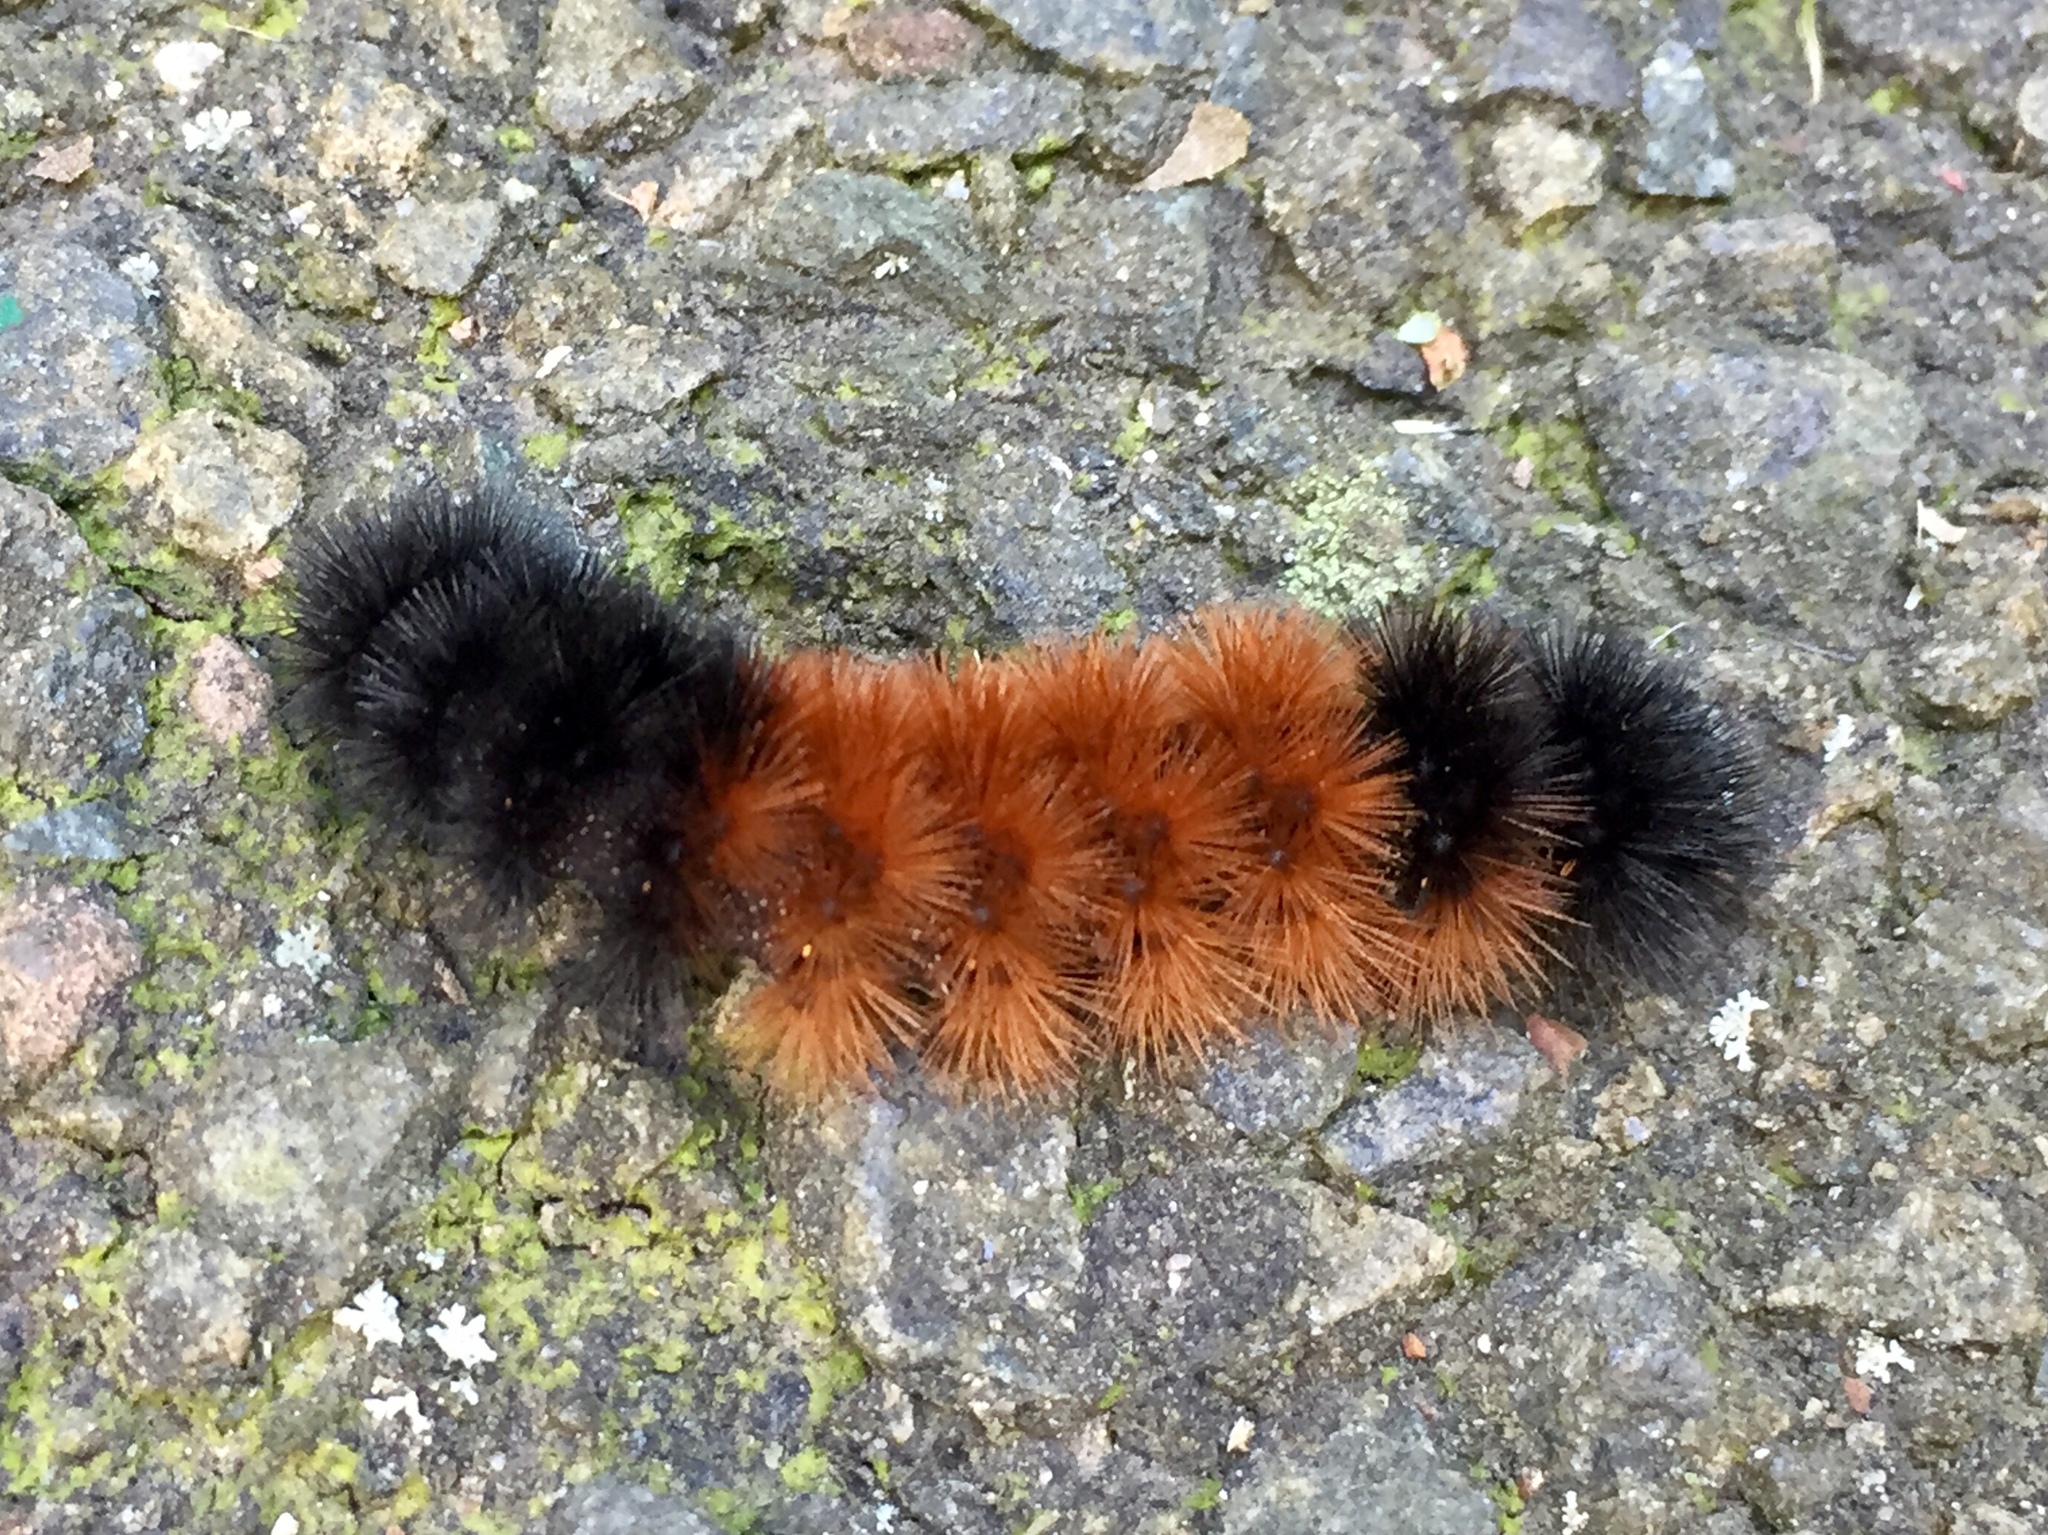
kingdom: Animalia
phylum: Arthropoda
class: Insecta
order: Lepidoptera
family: Erebidae
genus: Pyrrharctia
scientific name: Pyrrharctia isabella
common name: Isabella tiger moth
